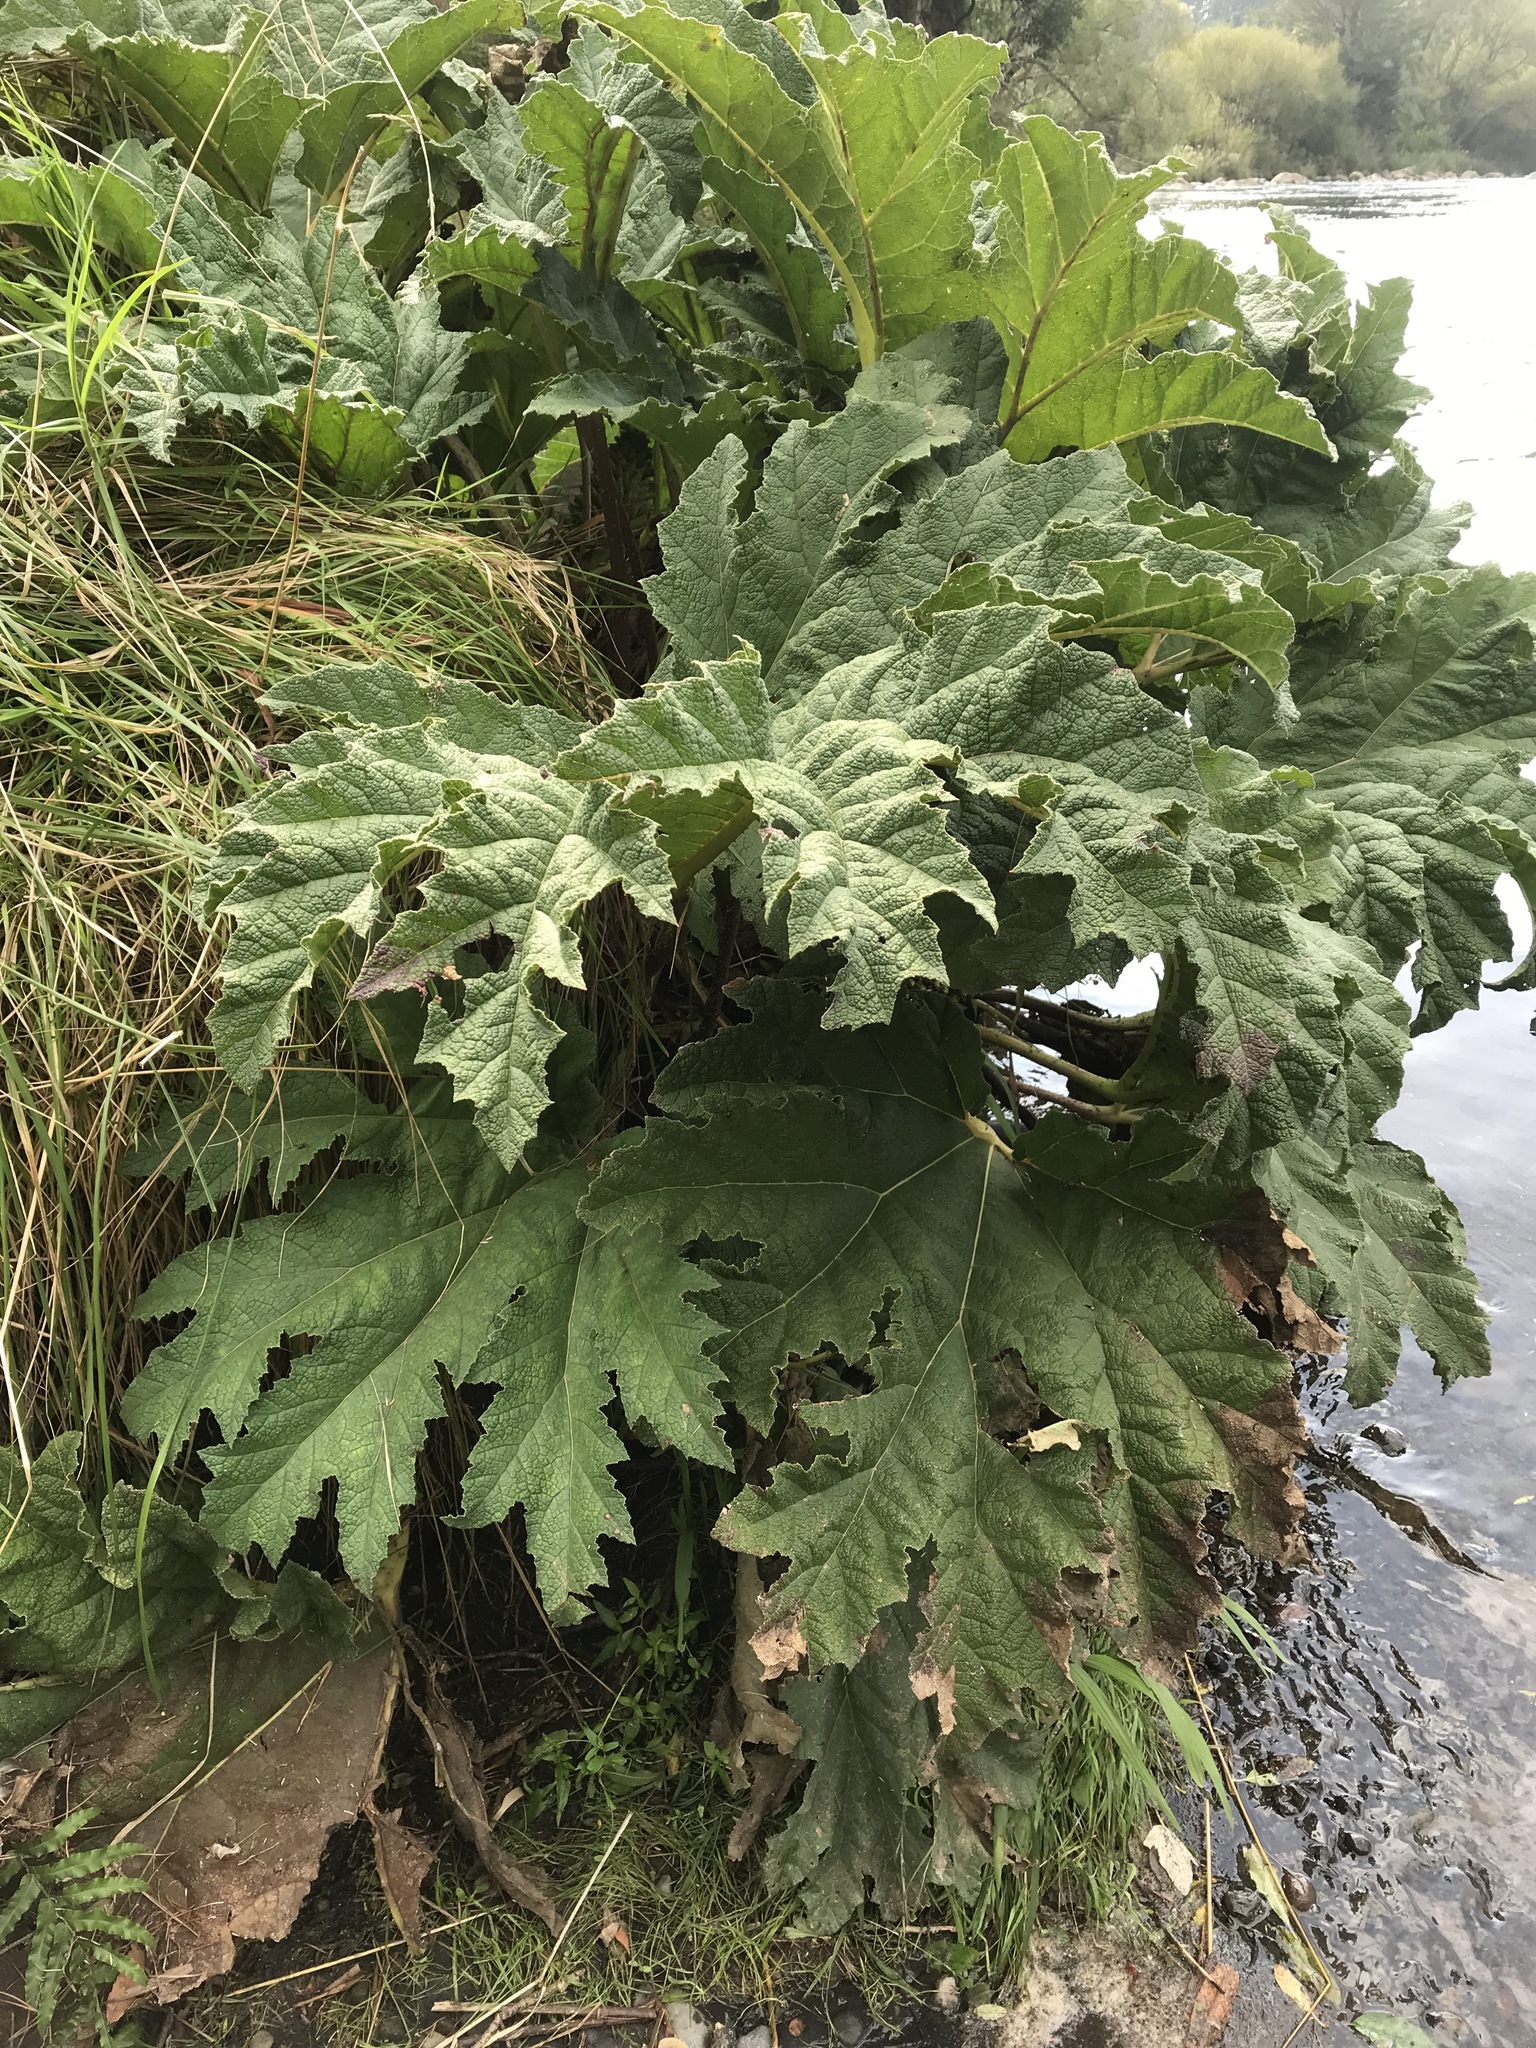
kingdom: Plantae
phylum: Tracheophyta
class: Magnoliopsida
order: Gunnerales
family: Gunneraceae
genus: Gunnera
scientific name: Gunnera tinctoria
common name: Giant-rhubarb
